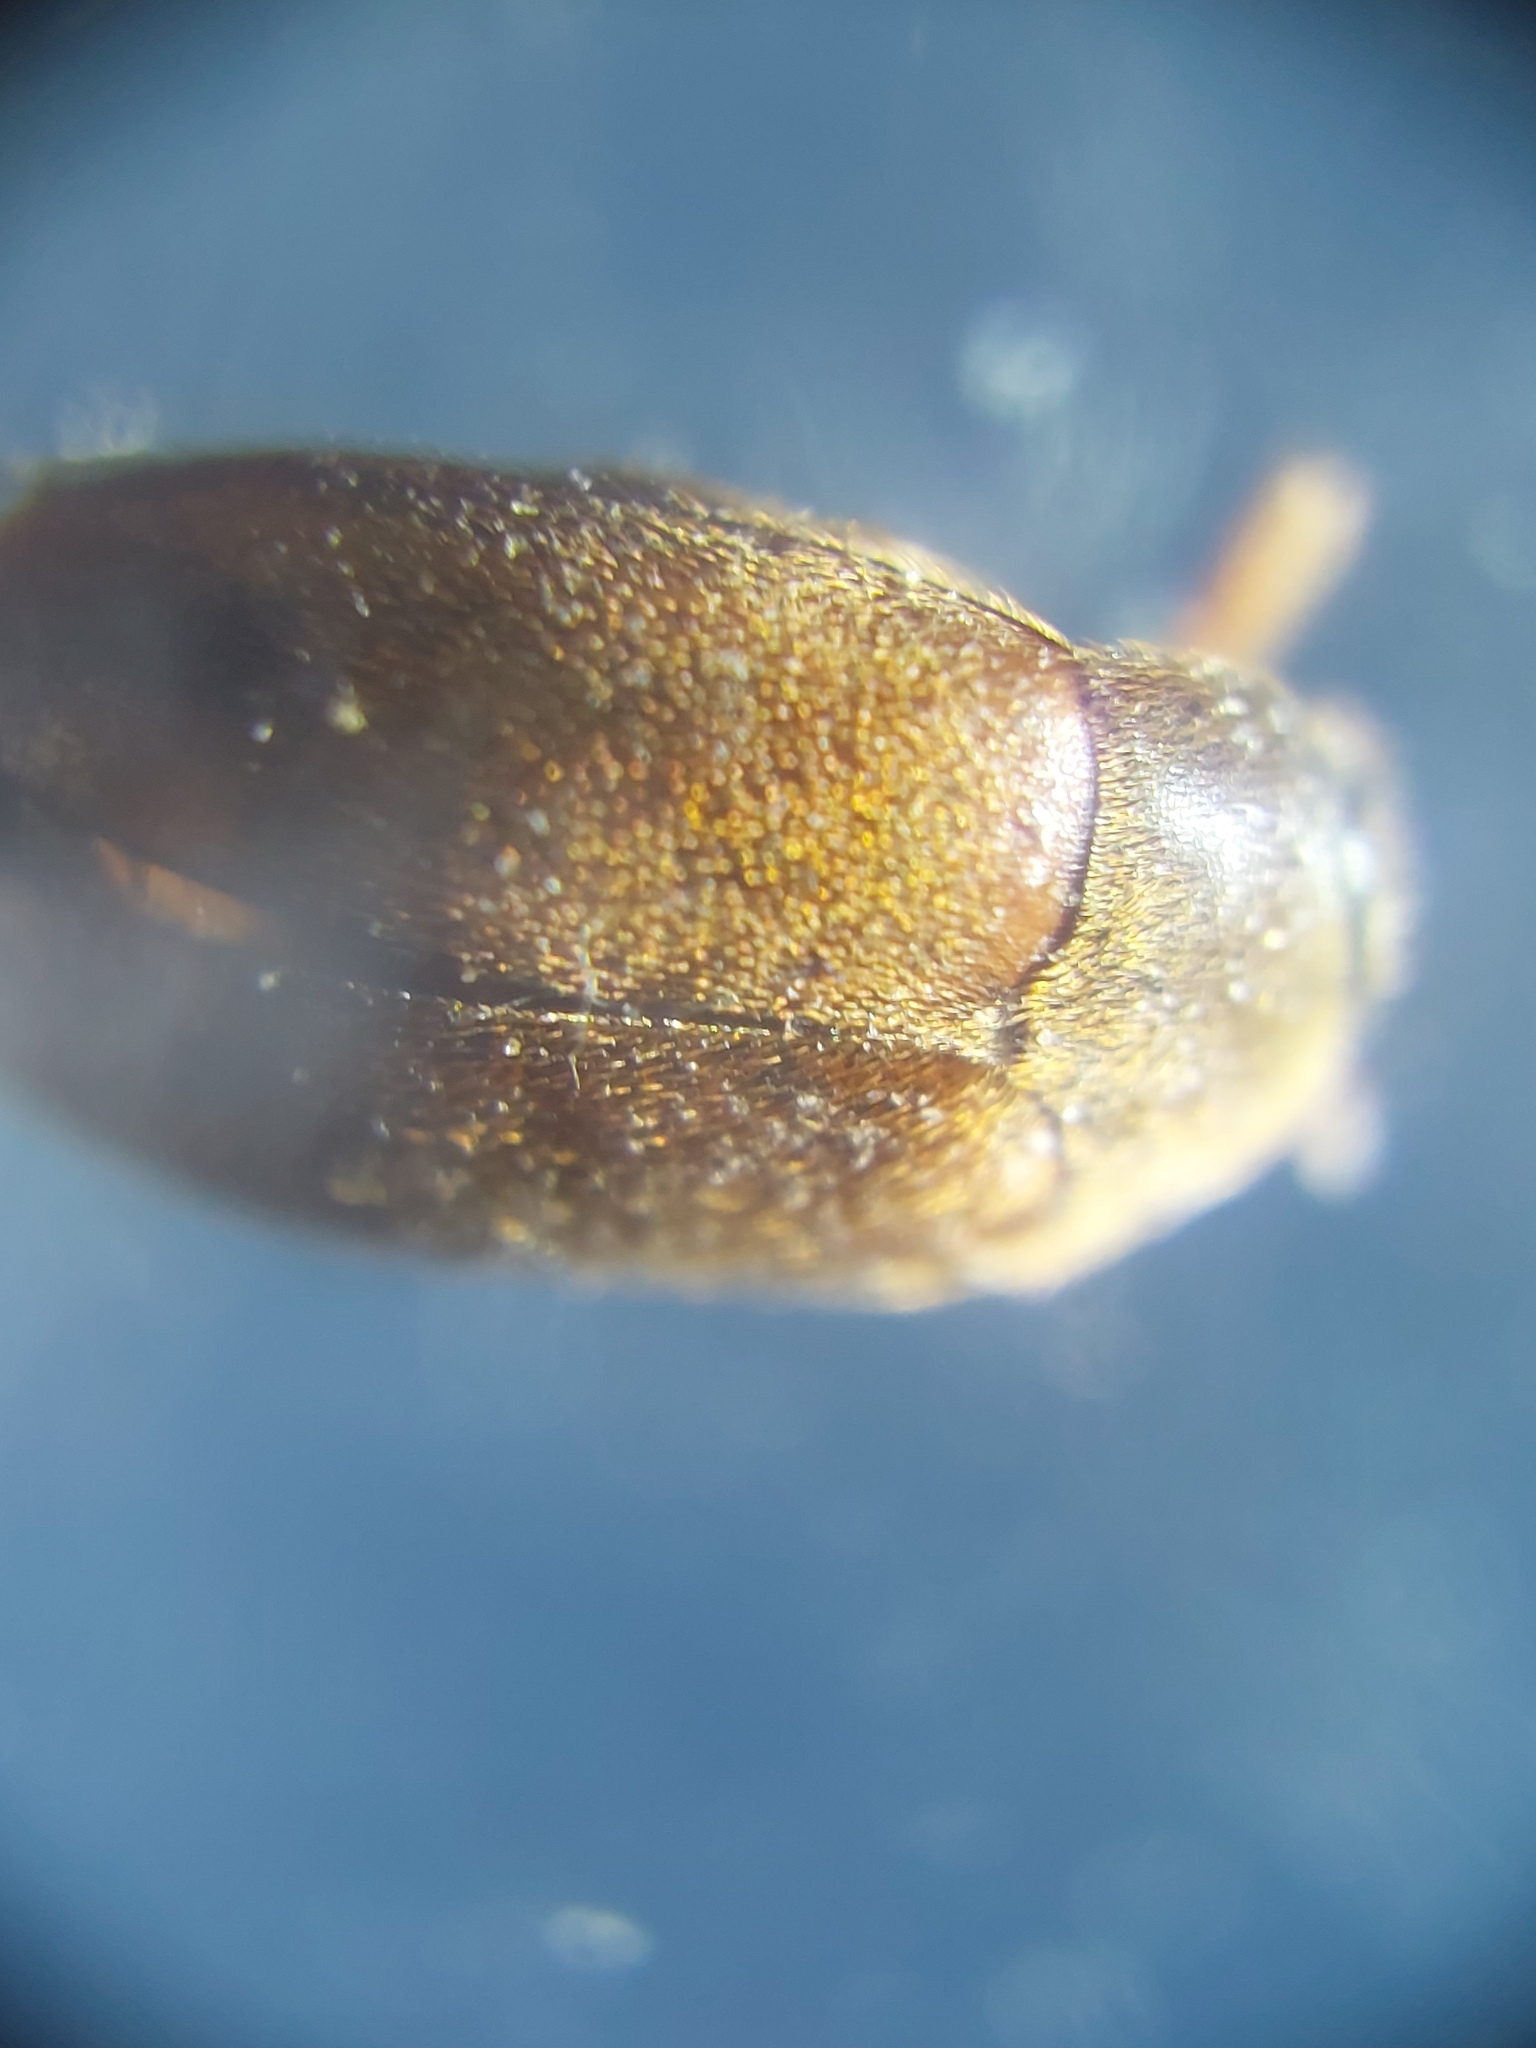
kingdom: Animalia
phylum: Arthropoda
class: Insecta
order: Coleoptera
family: Dermestidae
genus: Attagenus
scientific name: Attagenus smirnovi
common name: Brown carpet beetle
